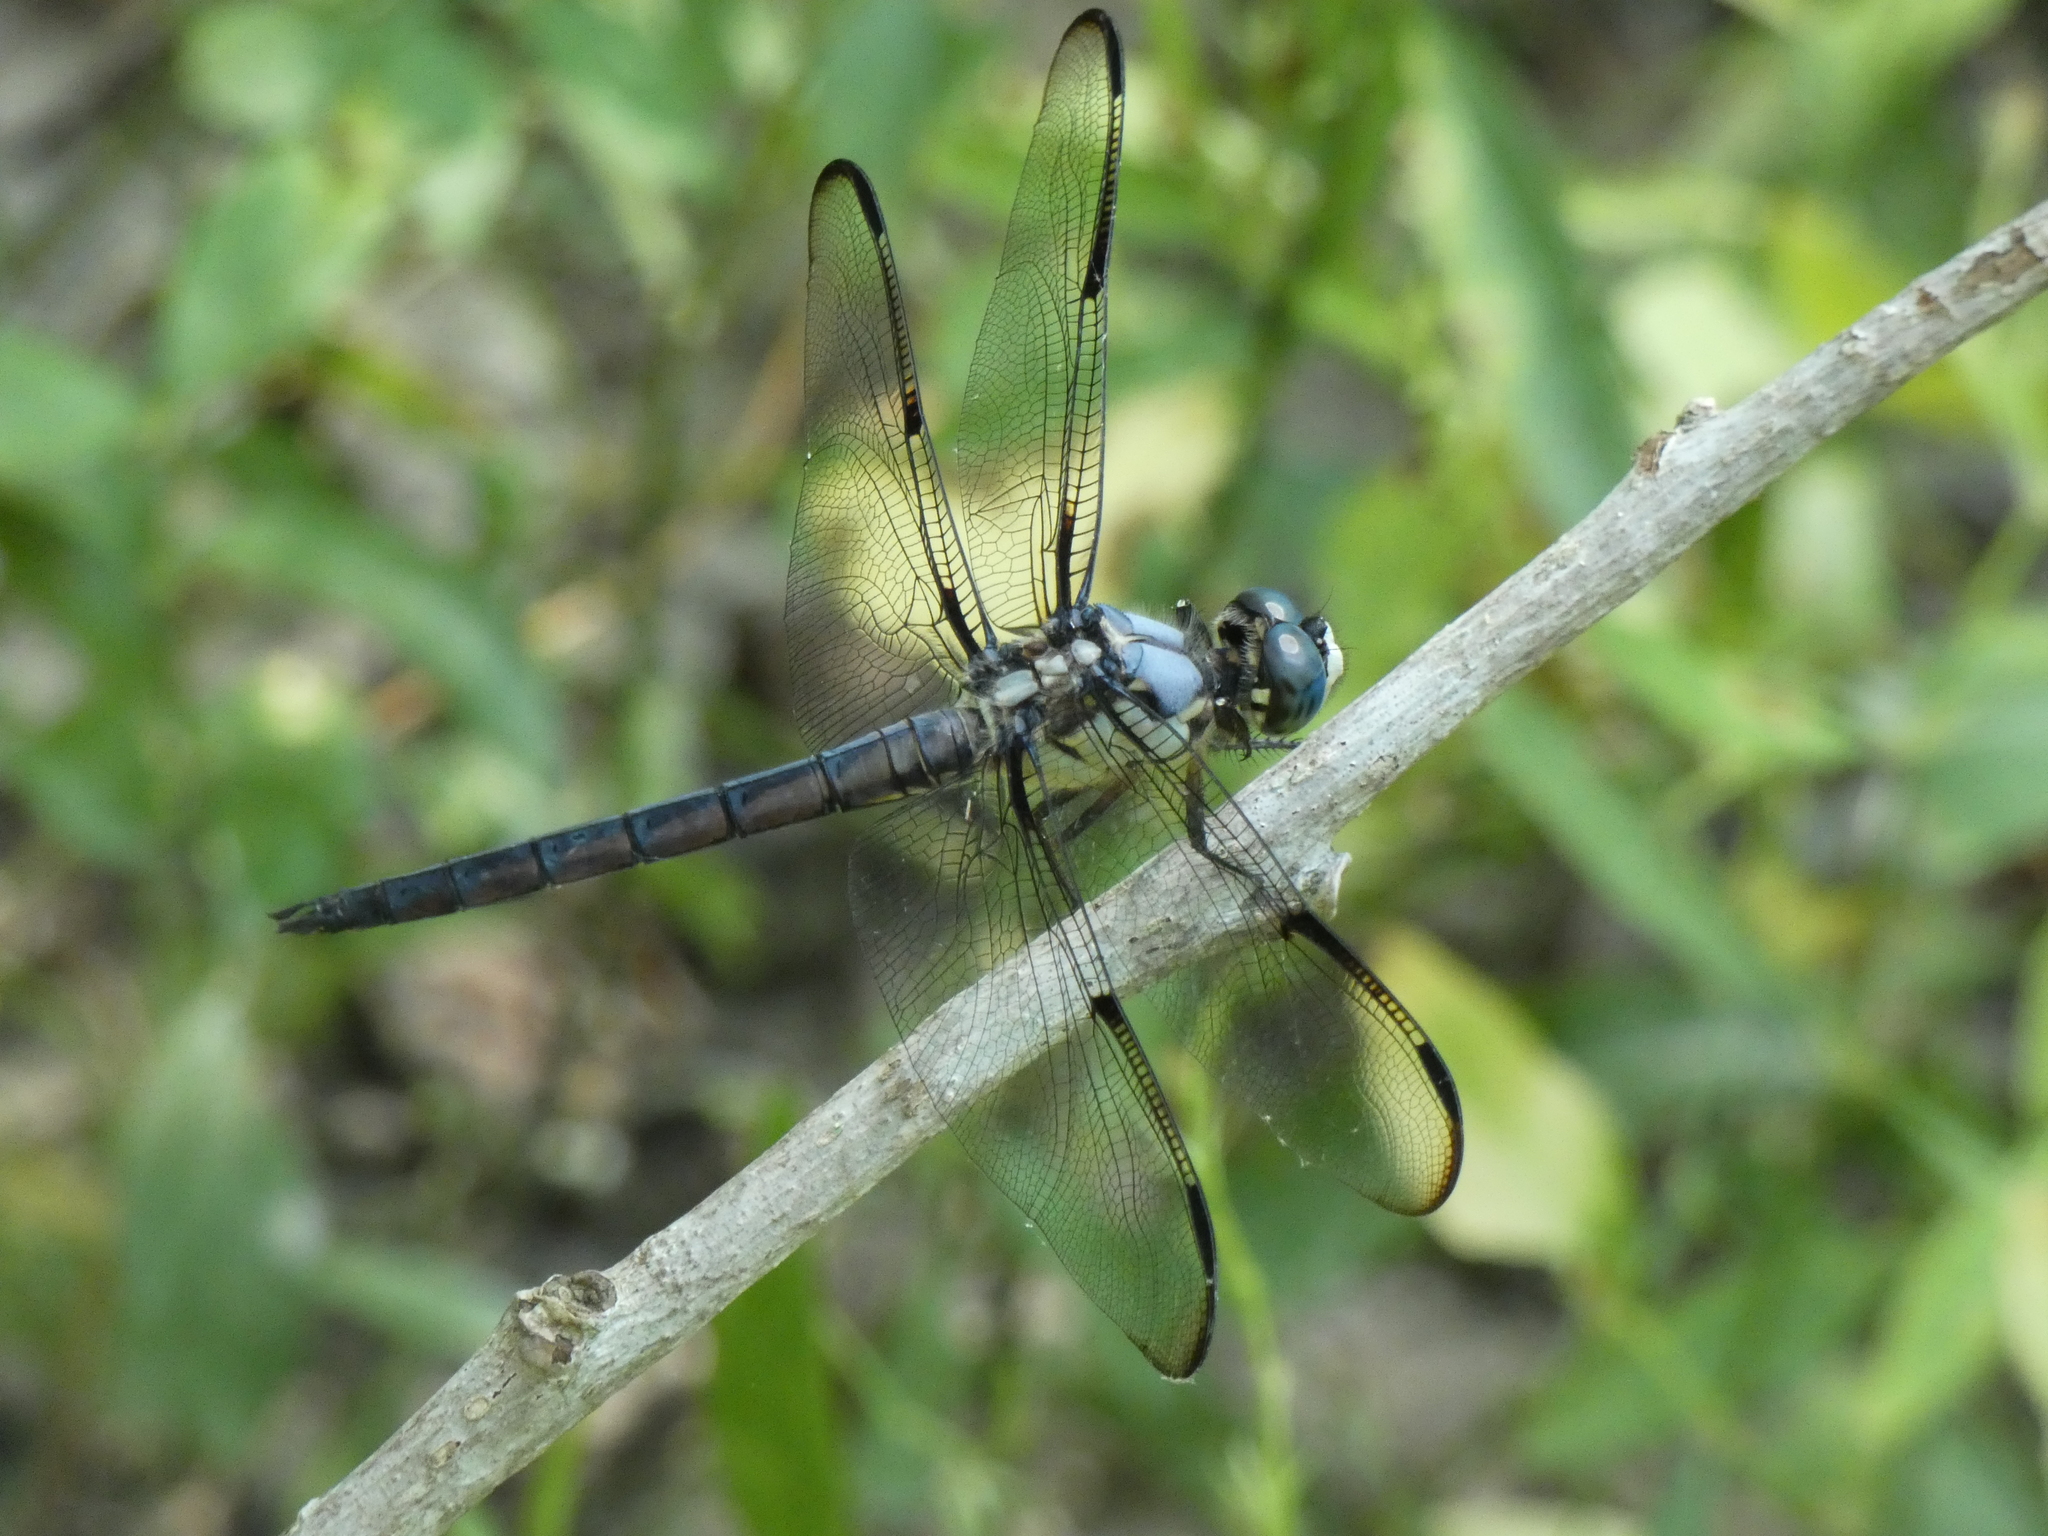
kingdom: Animalia
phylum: Arthropoda
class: Insecta
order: Odonata
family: Libellulidae
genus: Libellula
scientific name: Libellula vibrans
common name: Great blue skimmer
